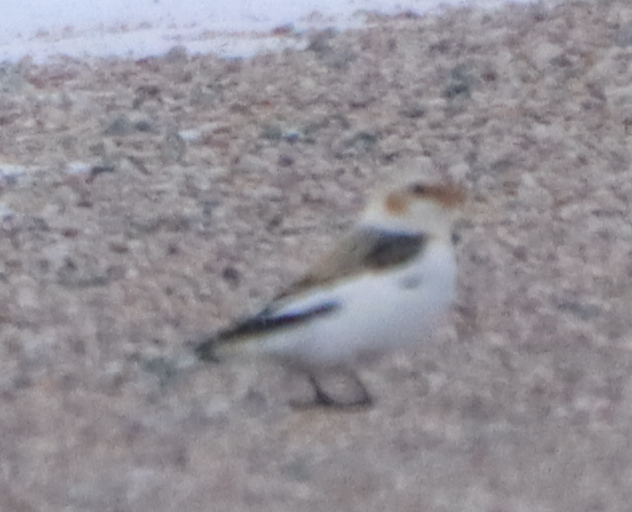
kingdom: Animalia
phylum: Chordata
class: Aves
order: Passeriformes
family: Calcariidae
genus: Plectrophenax
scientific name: Plectrophenax nivalis
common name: Snow bunting
